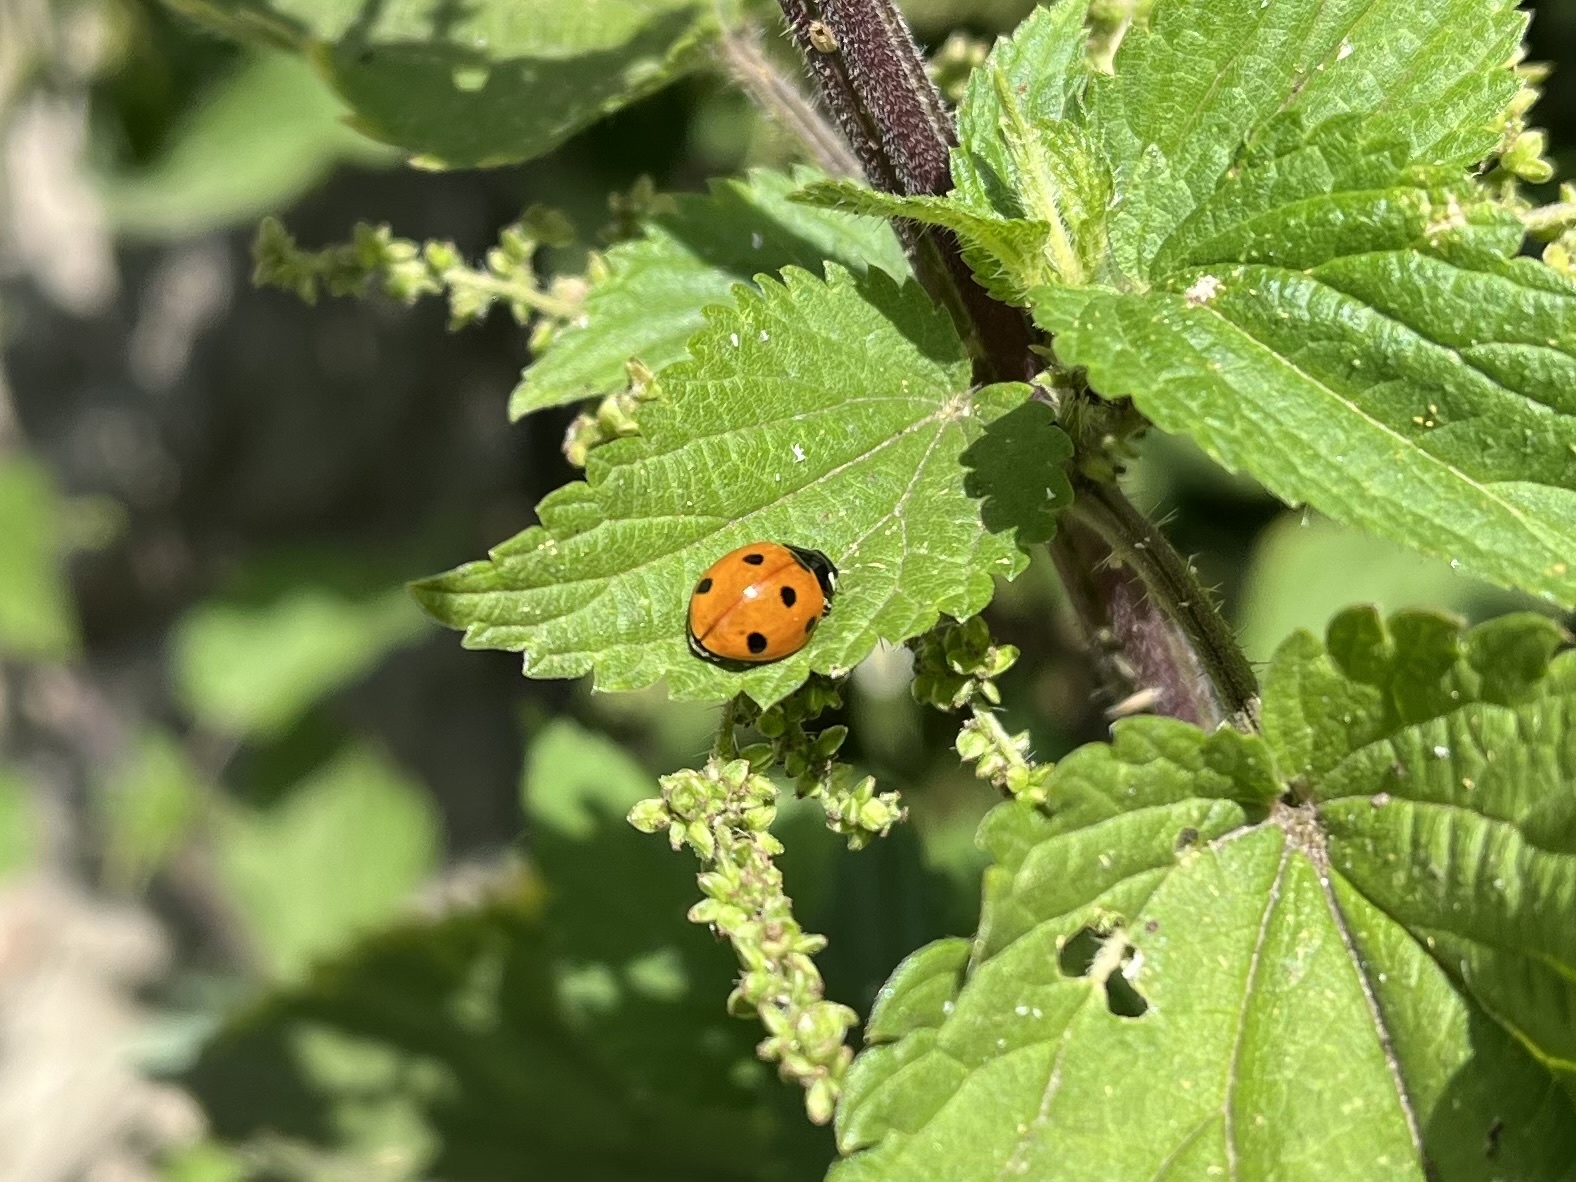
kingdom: Animalia
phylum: Arthropoda
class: Insecta
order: Coleoptera
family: Coccinellidae
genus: Coccinella
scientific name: Coccinella septempunctata
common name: Sevenspotted lady beetle
